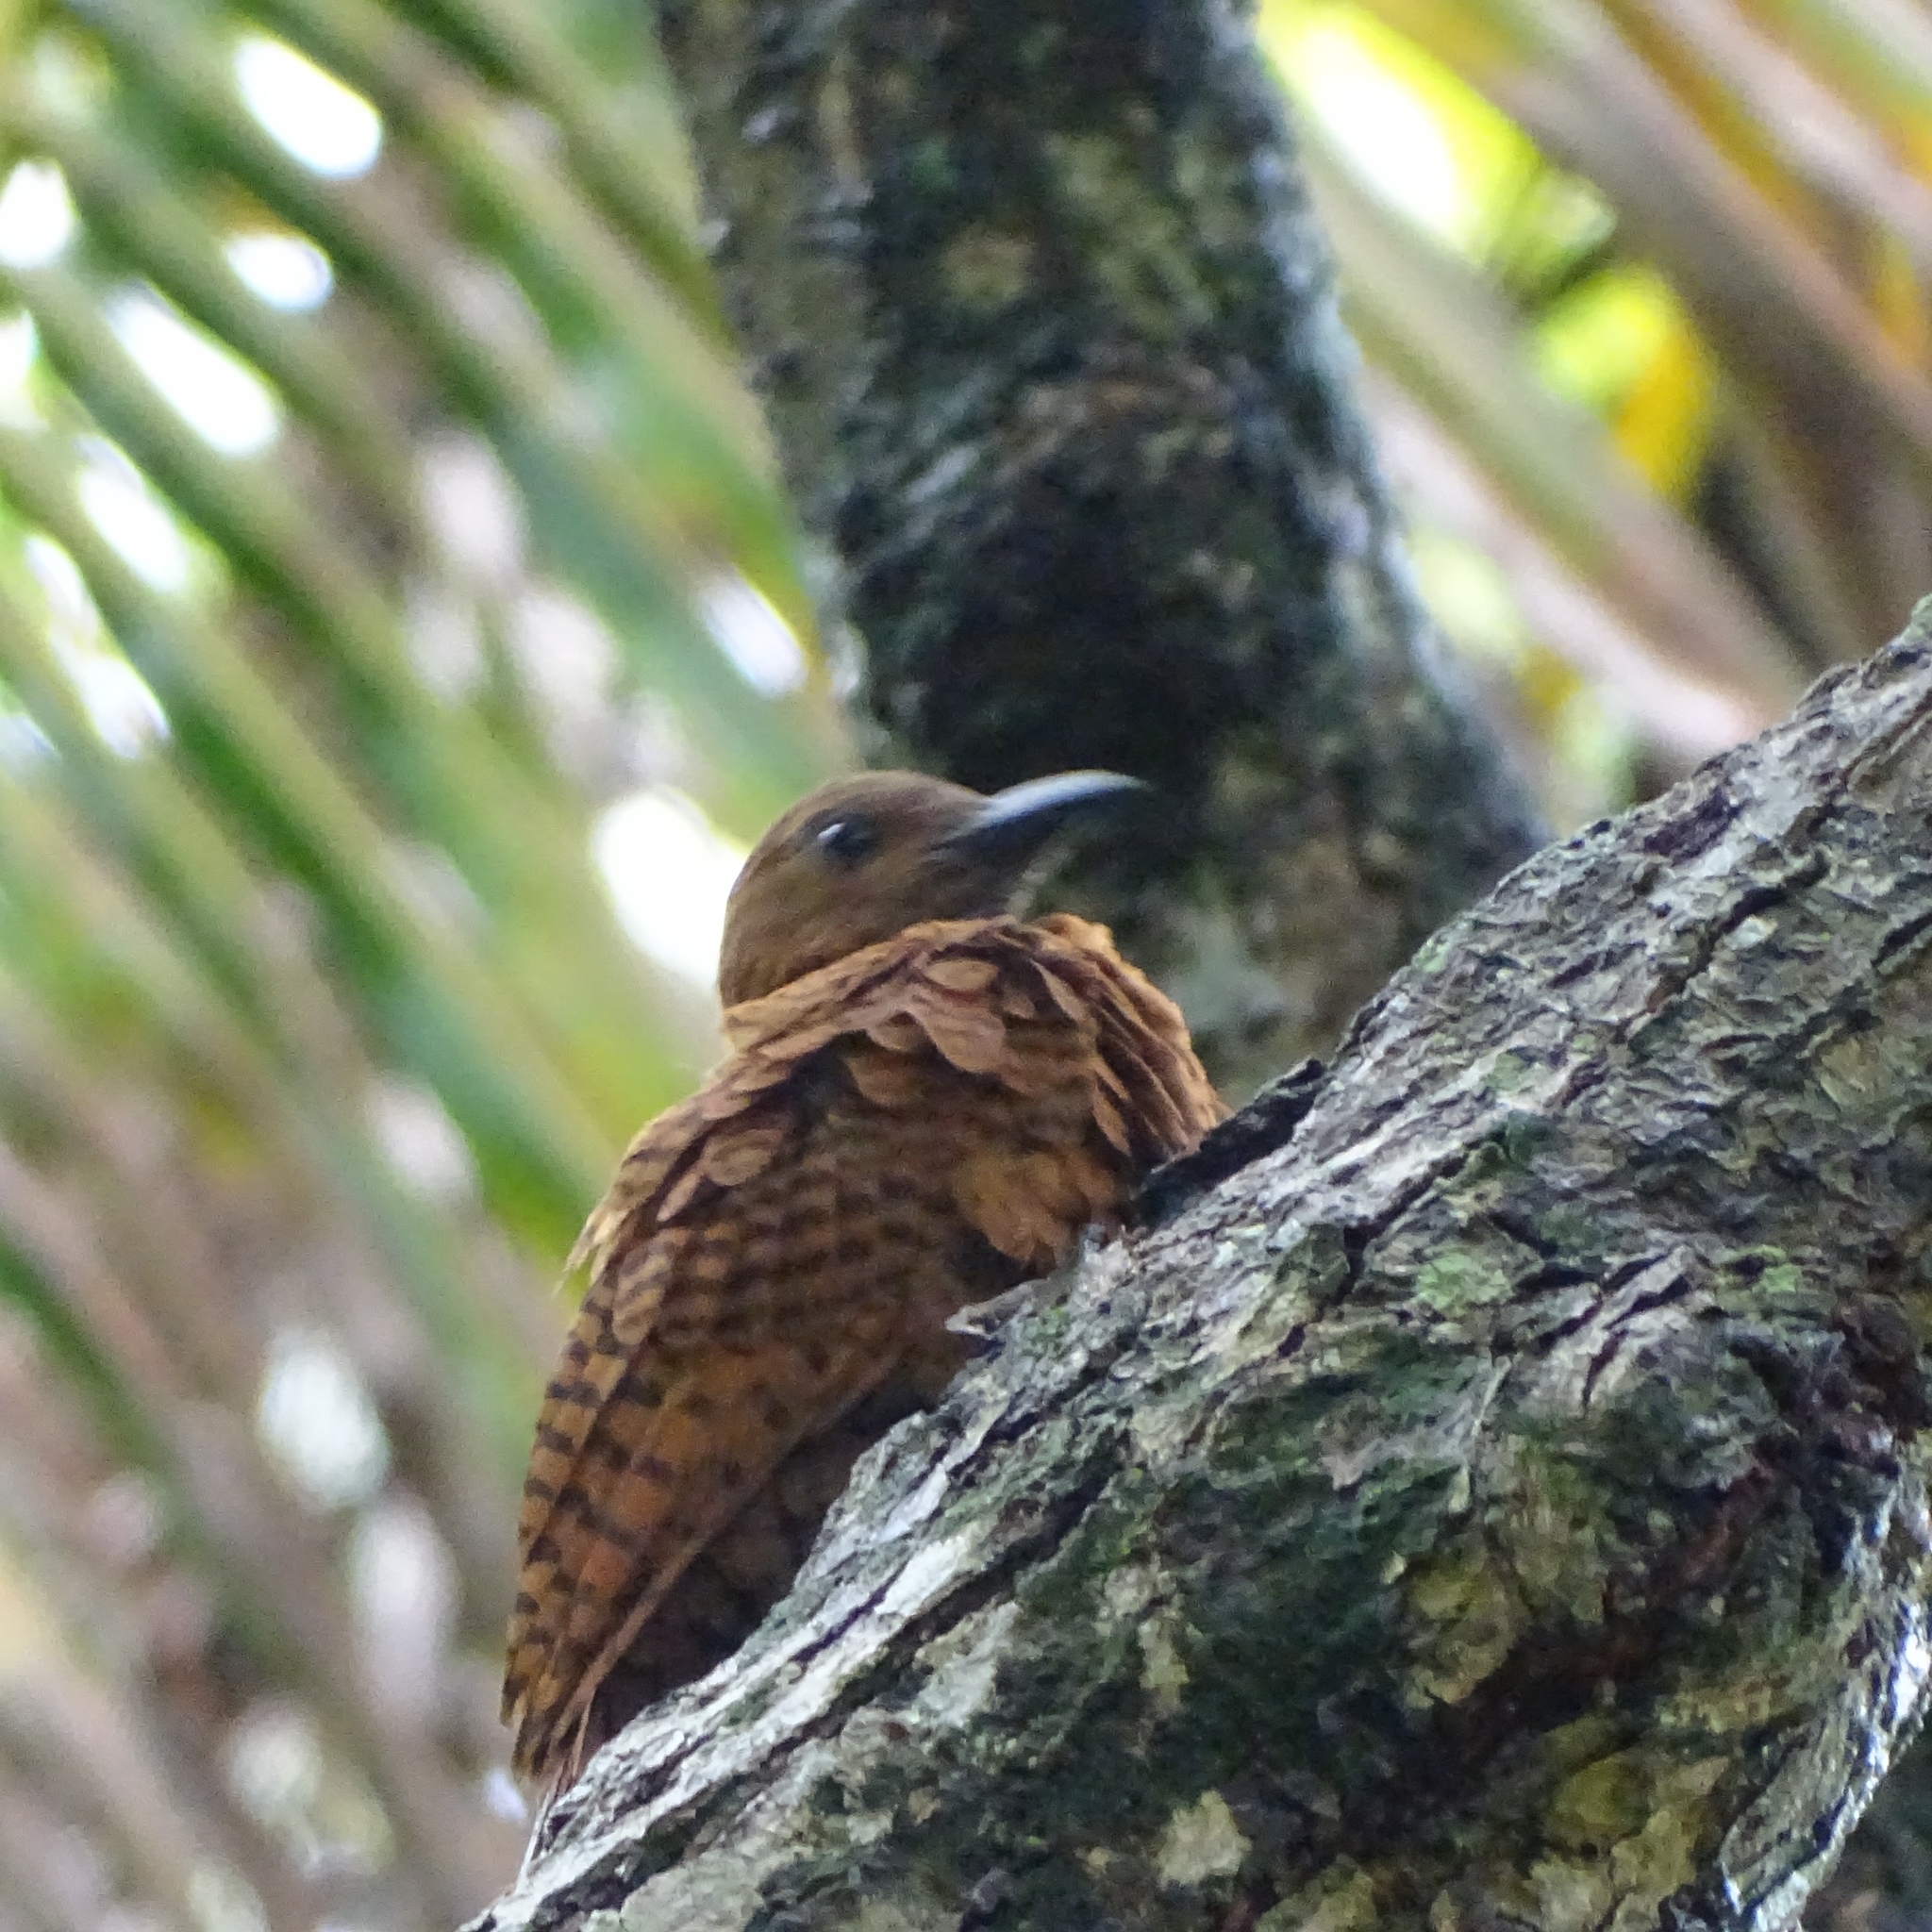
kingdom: Animalia
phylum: Chordata
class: Aves
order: Piciformes
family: Picidae
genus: Micropternus
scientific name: Micropternus brachyurus
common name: Rufous woodpecker
